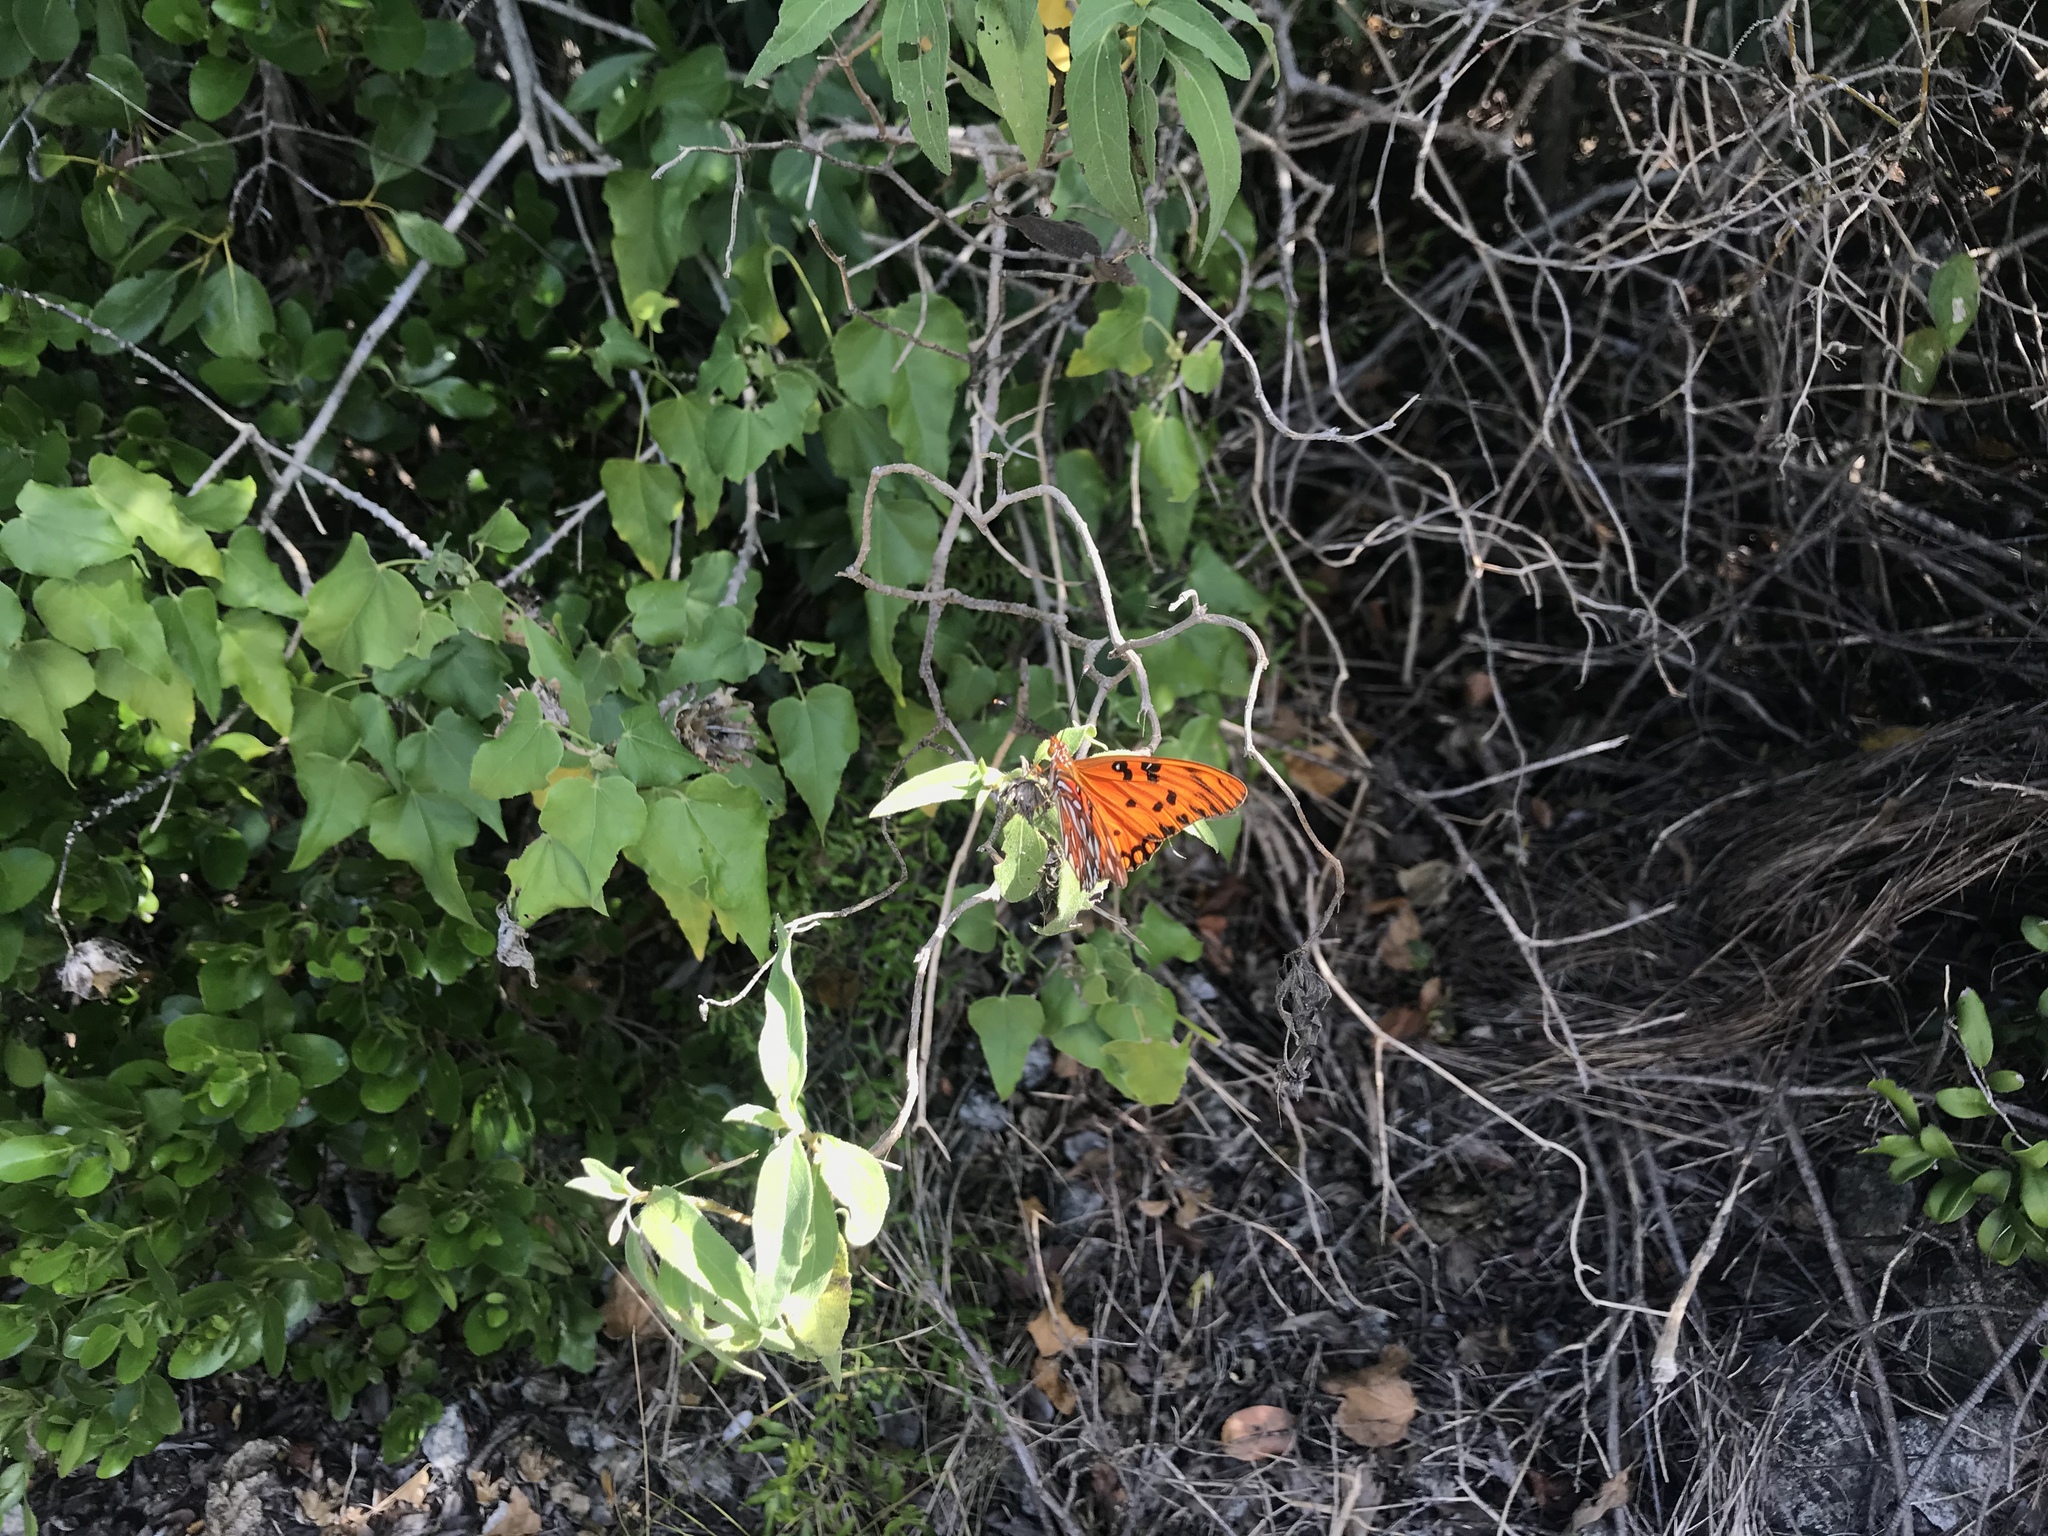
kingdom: Animalia
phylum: Arthropoda
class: Insecta
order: Lepidoptera
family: Nymphalidae
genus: Dione
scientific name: Dione vanillae
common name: Gulf fritillary
